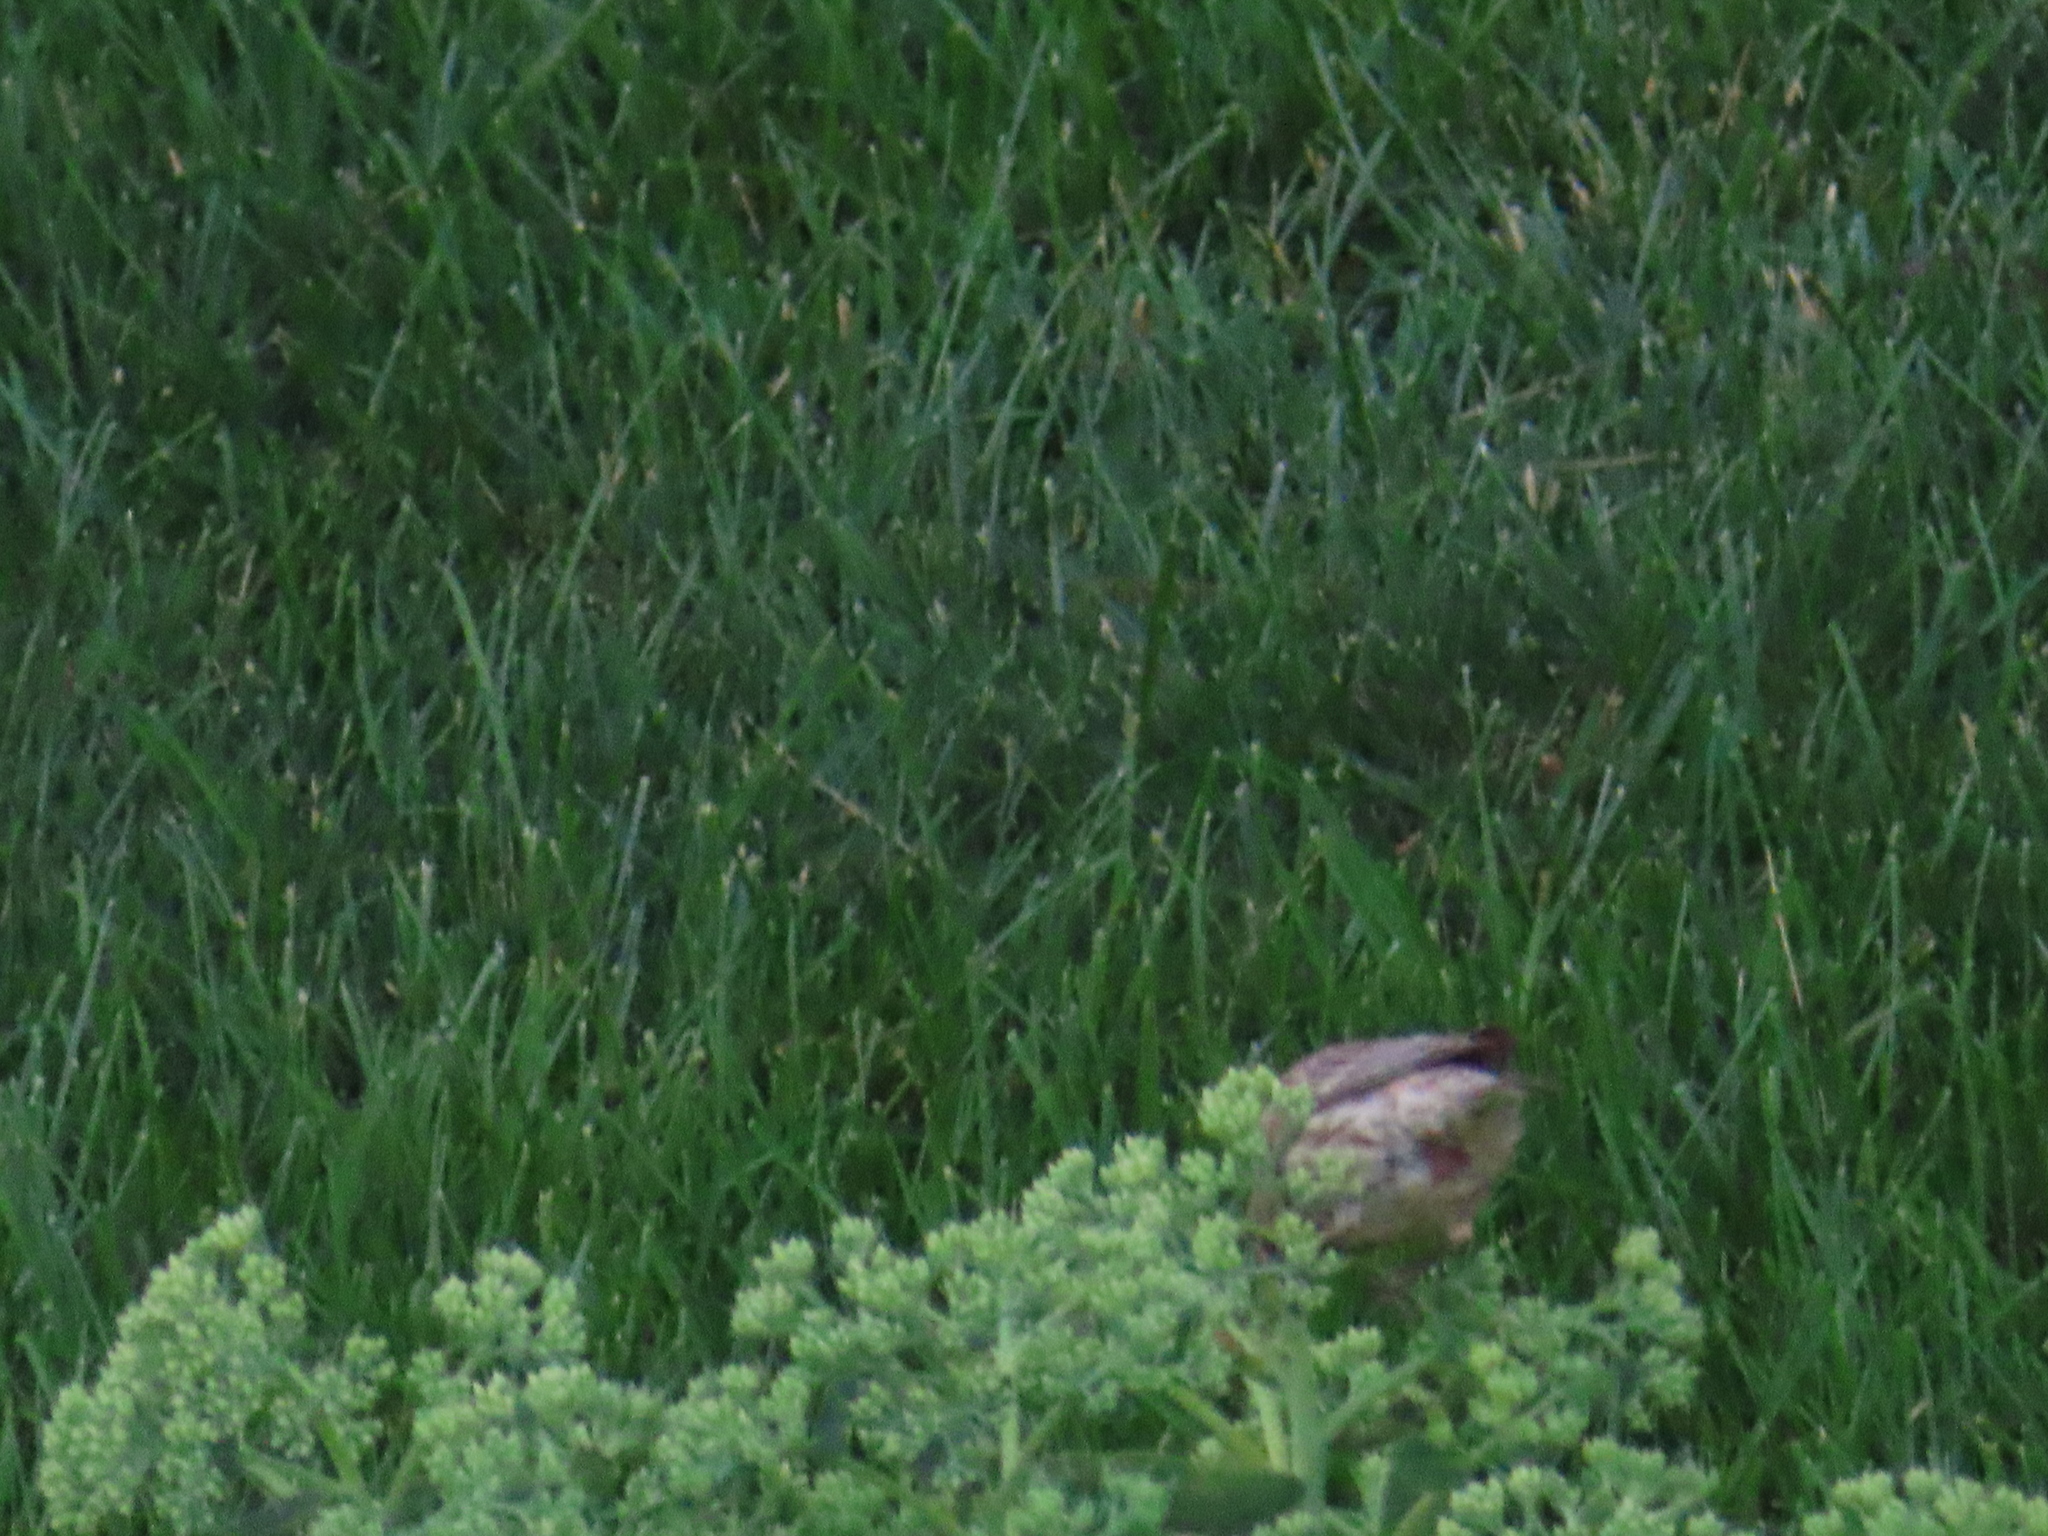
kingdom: Animalia
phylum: Chordata
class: Aves
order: Passeriformes
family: Fringillidae
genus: Haemorhous
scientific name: Haemorhous mexicanus
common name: House finch
